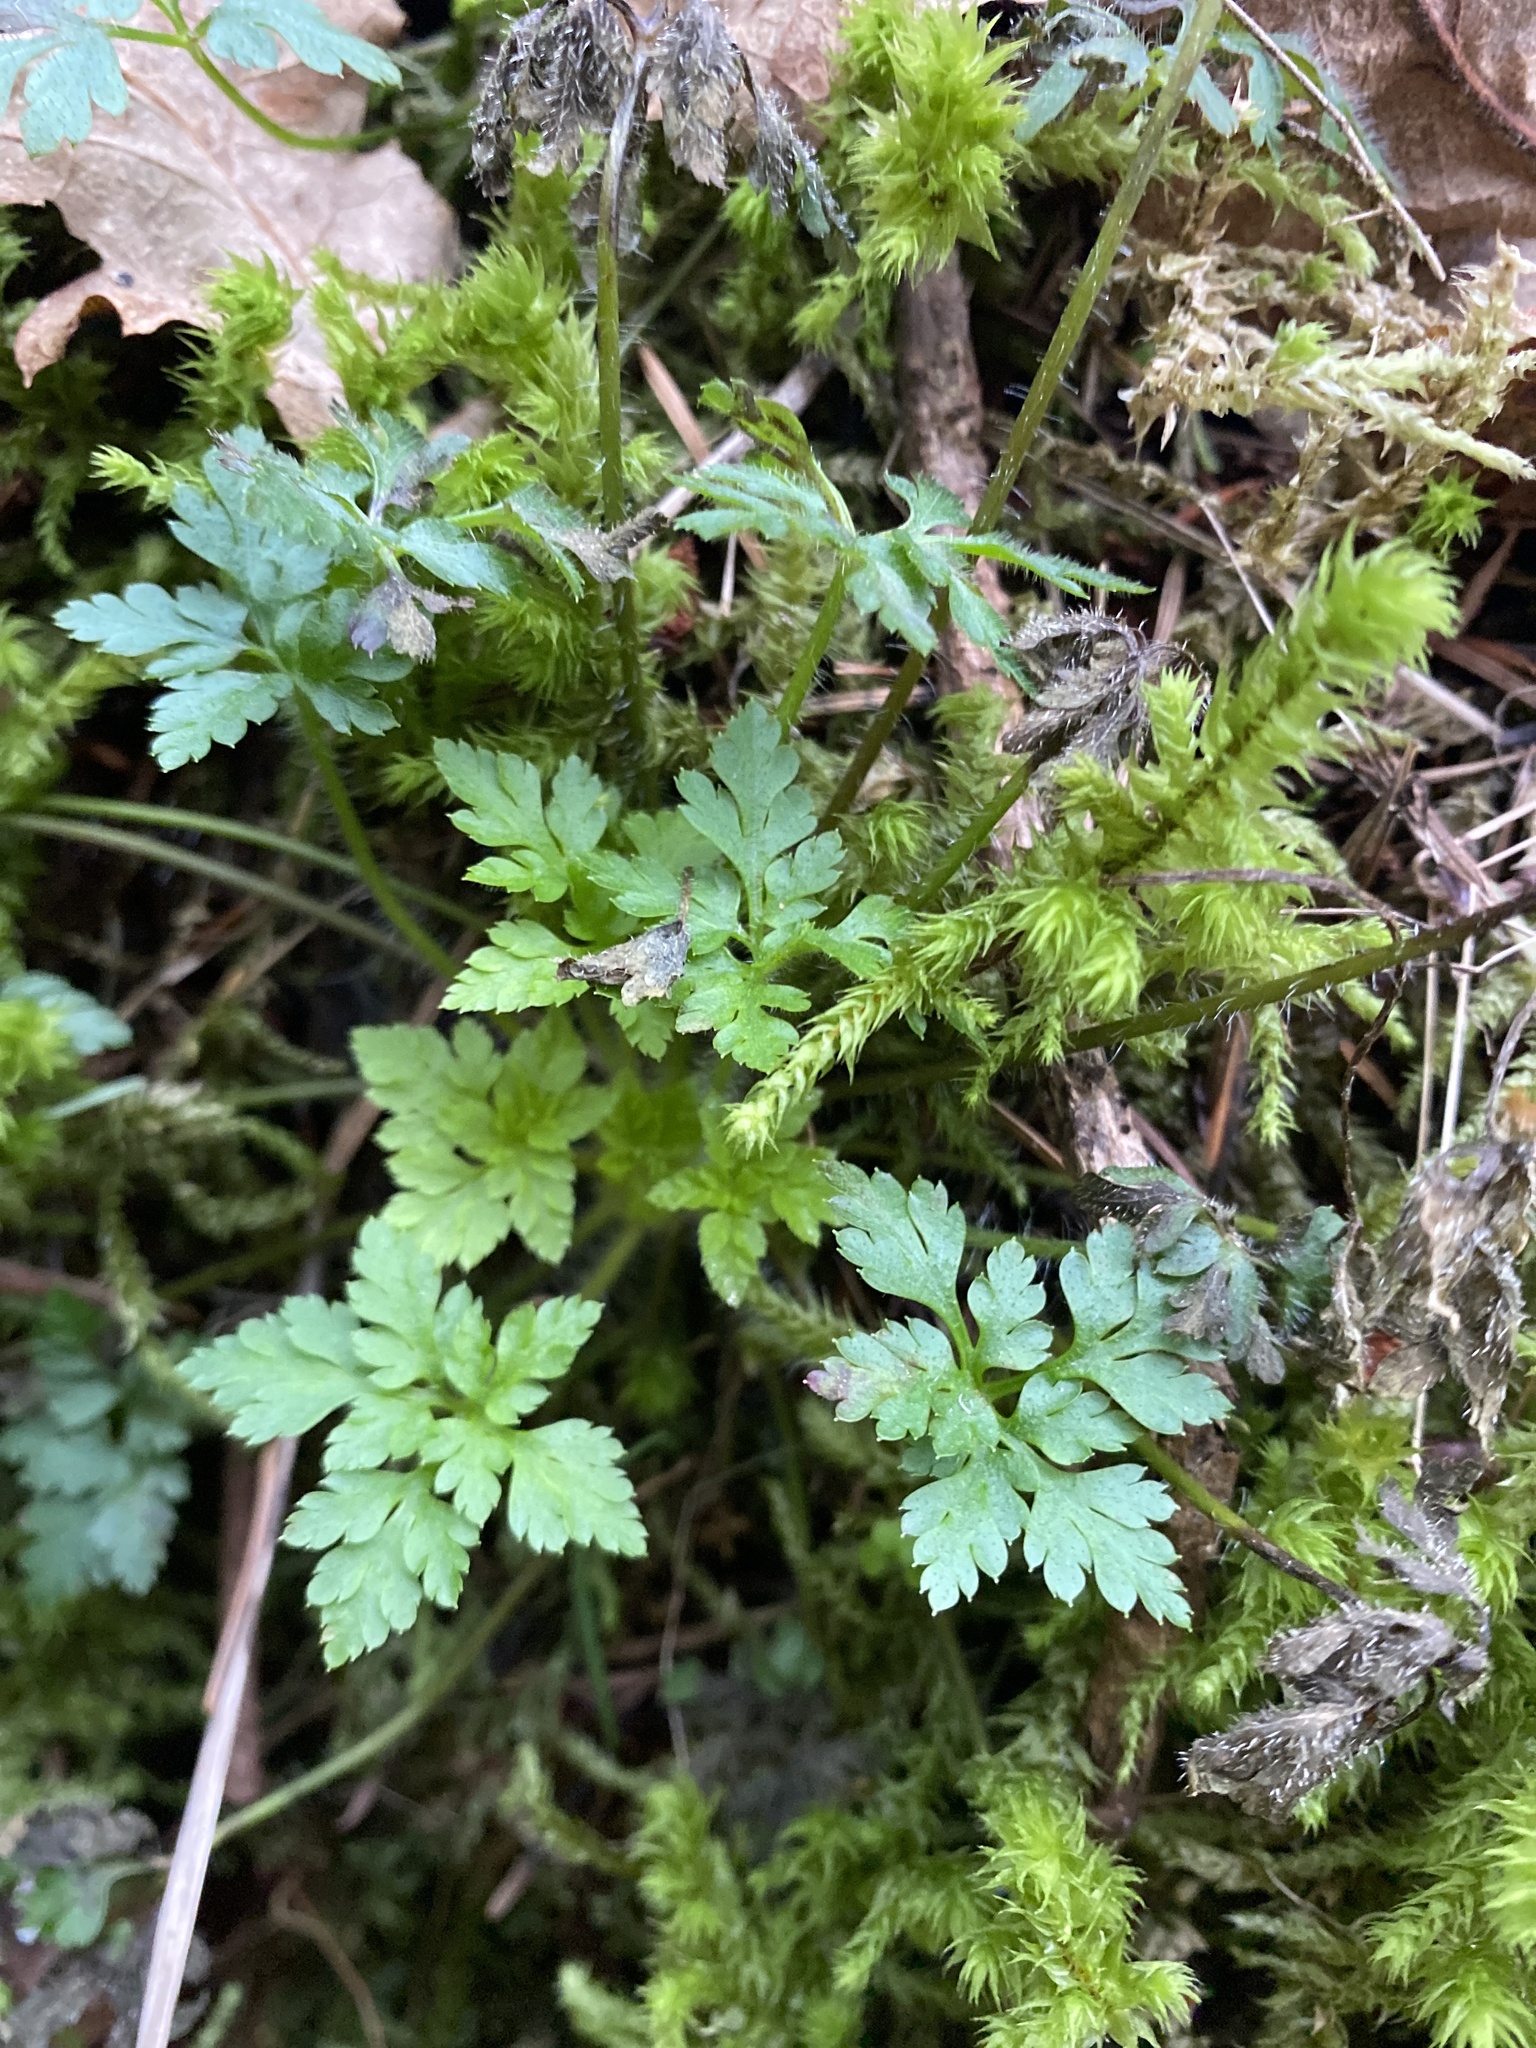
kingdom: Plantae
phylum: Tracheophyta
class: Magnoliopsida
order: Geraniales
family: Geraniaceae
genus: Geranium
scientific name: Geranium robertianum
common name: Herb-robert
